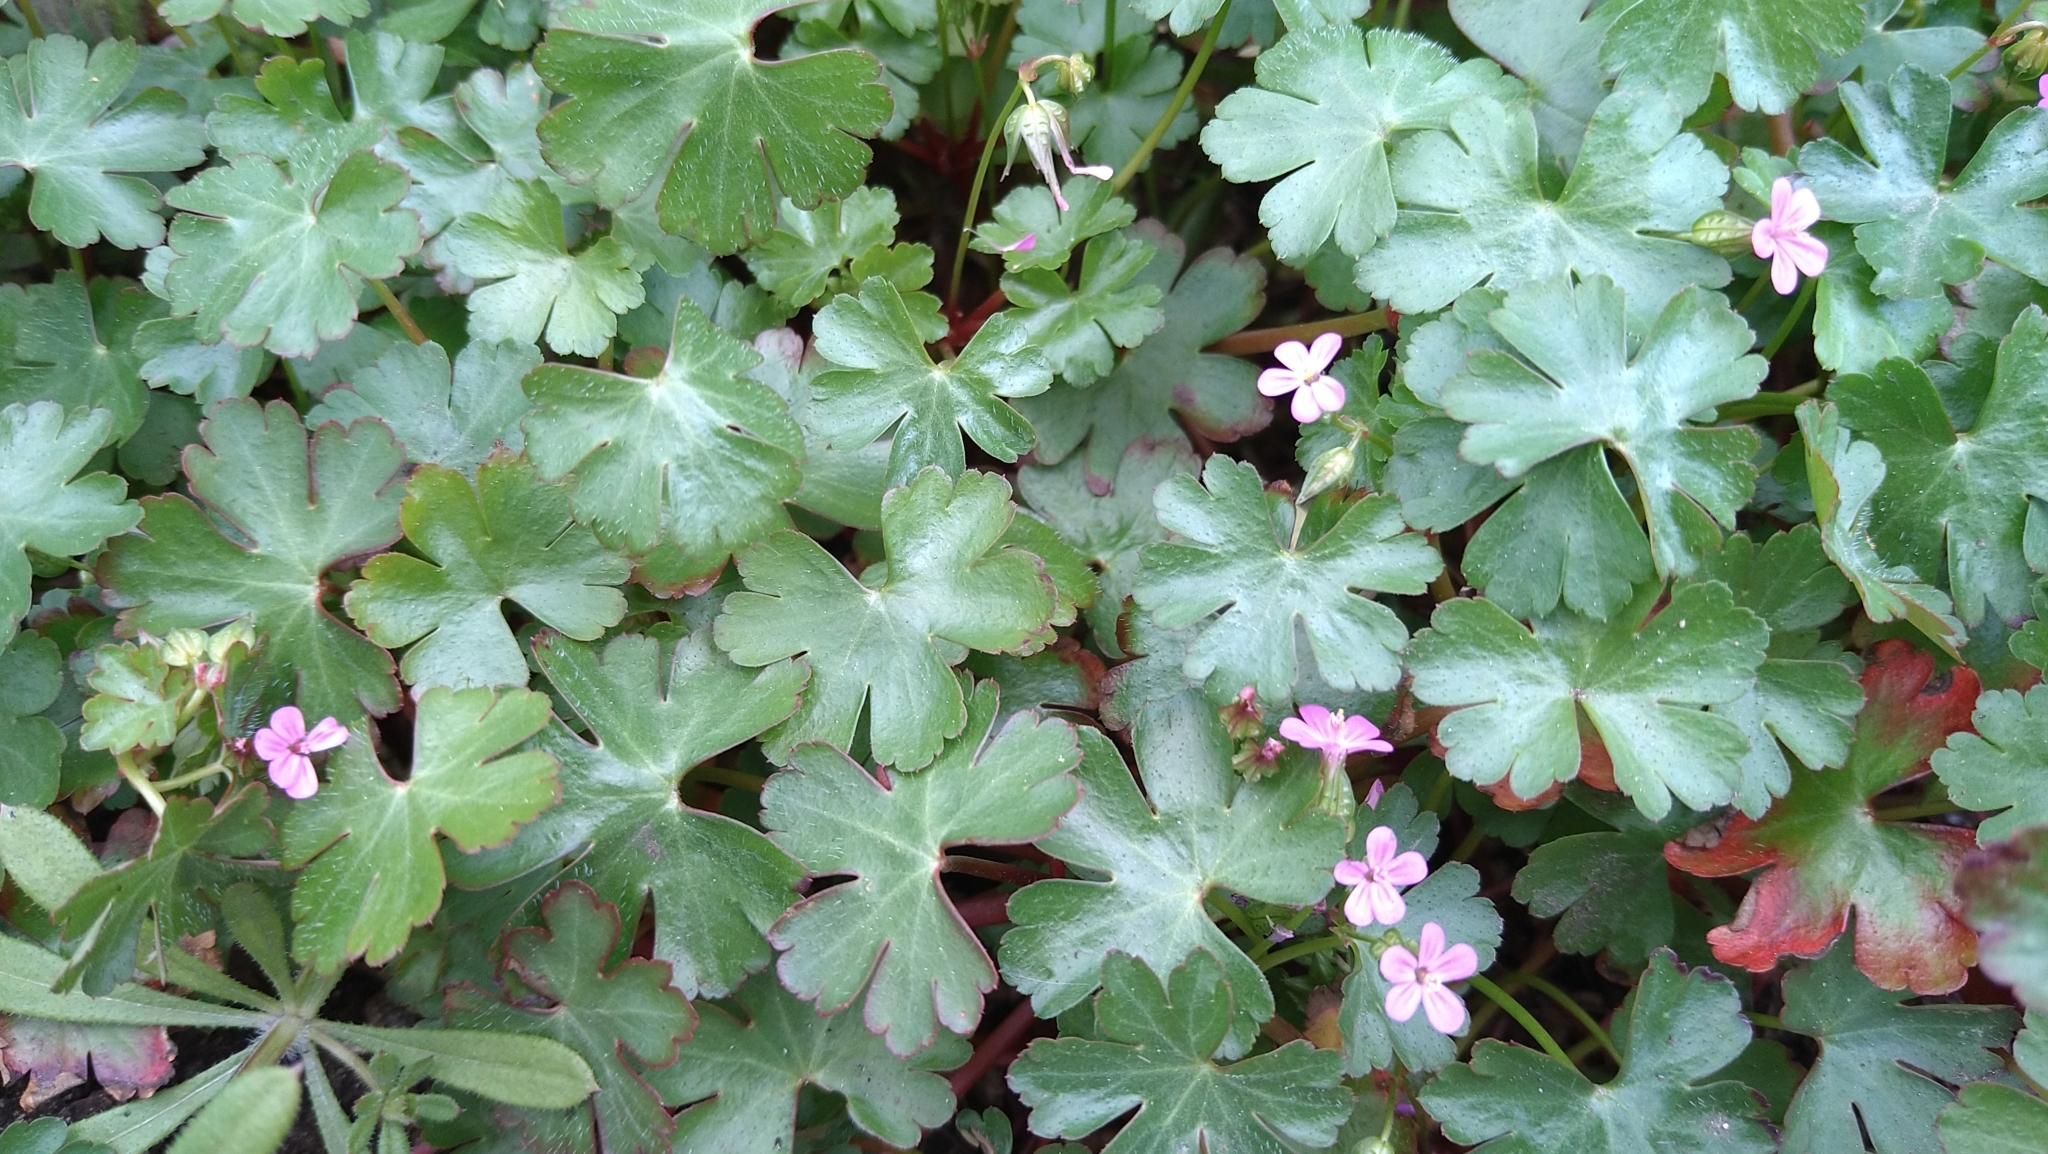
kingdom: Plantae
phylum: Tracheophyta
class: Magnoliopsida
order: Geraniales
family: Geraniaceae
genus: Geranium
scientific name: Geranium lucidum
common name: Shining crane's-bill
